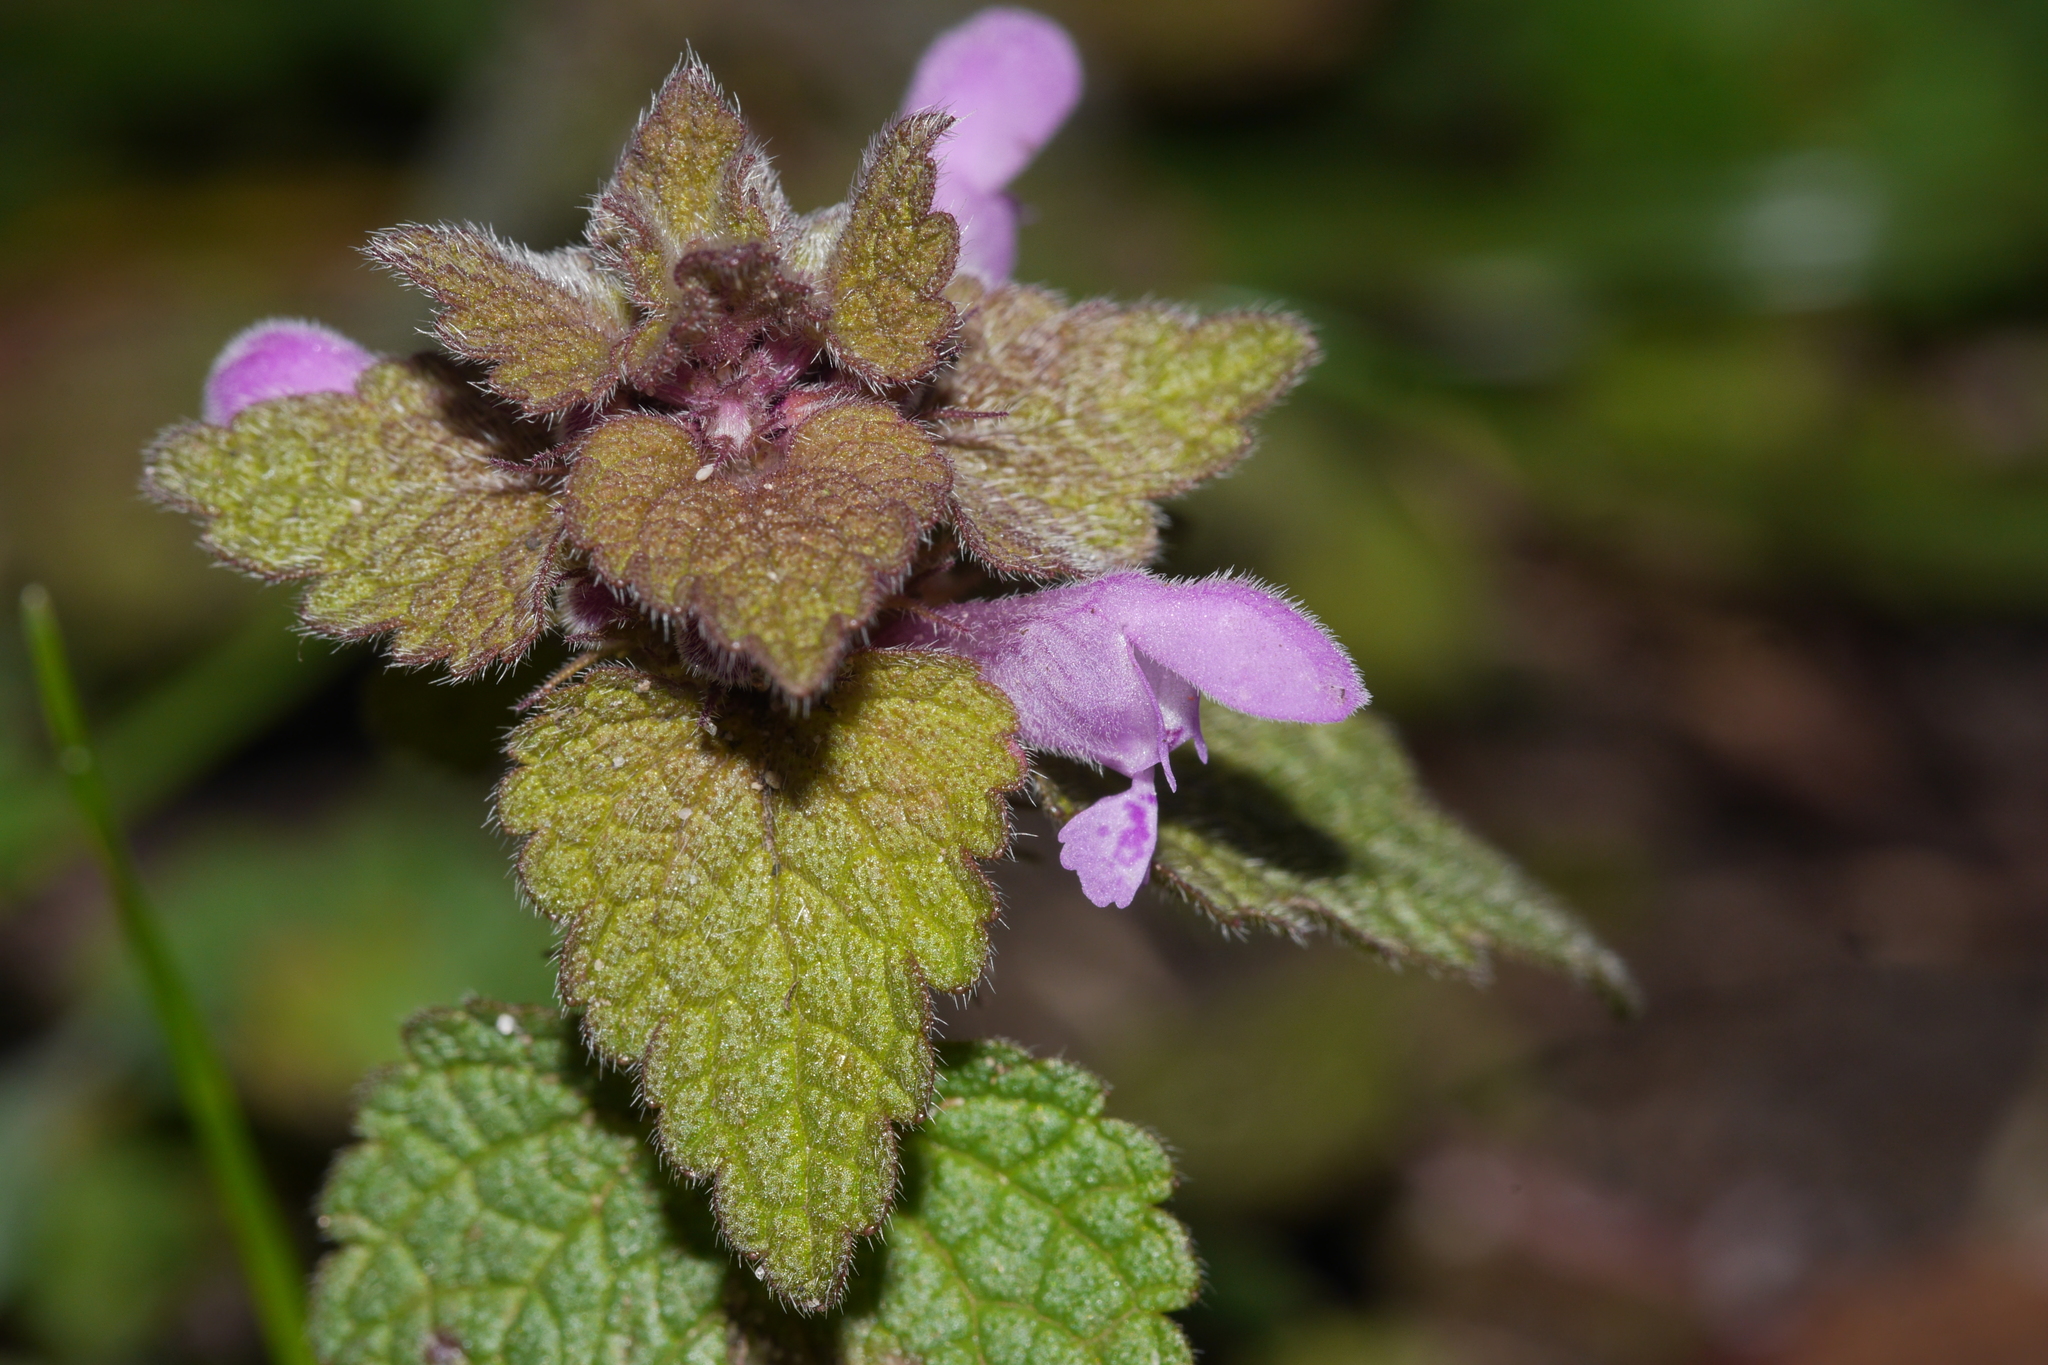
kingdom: Plantae
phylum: Tracheophyta
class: Magnoliopsida
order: Lamiales
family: Lamiaceae
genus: Lamium
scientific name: Lamium purpureum
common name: Red dead-nettle
